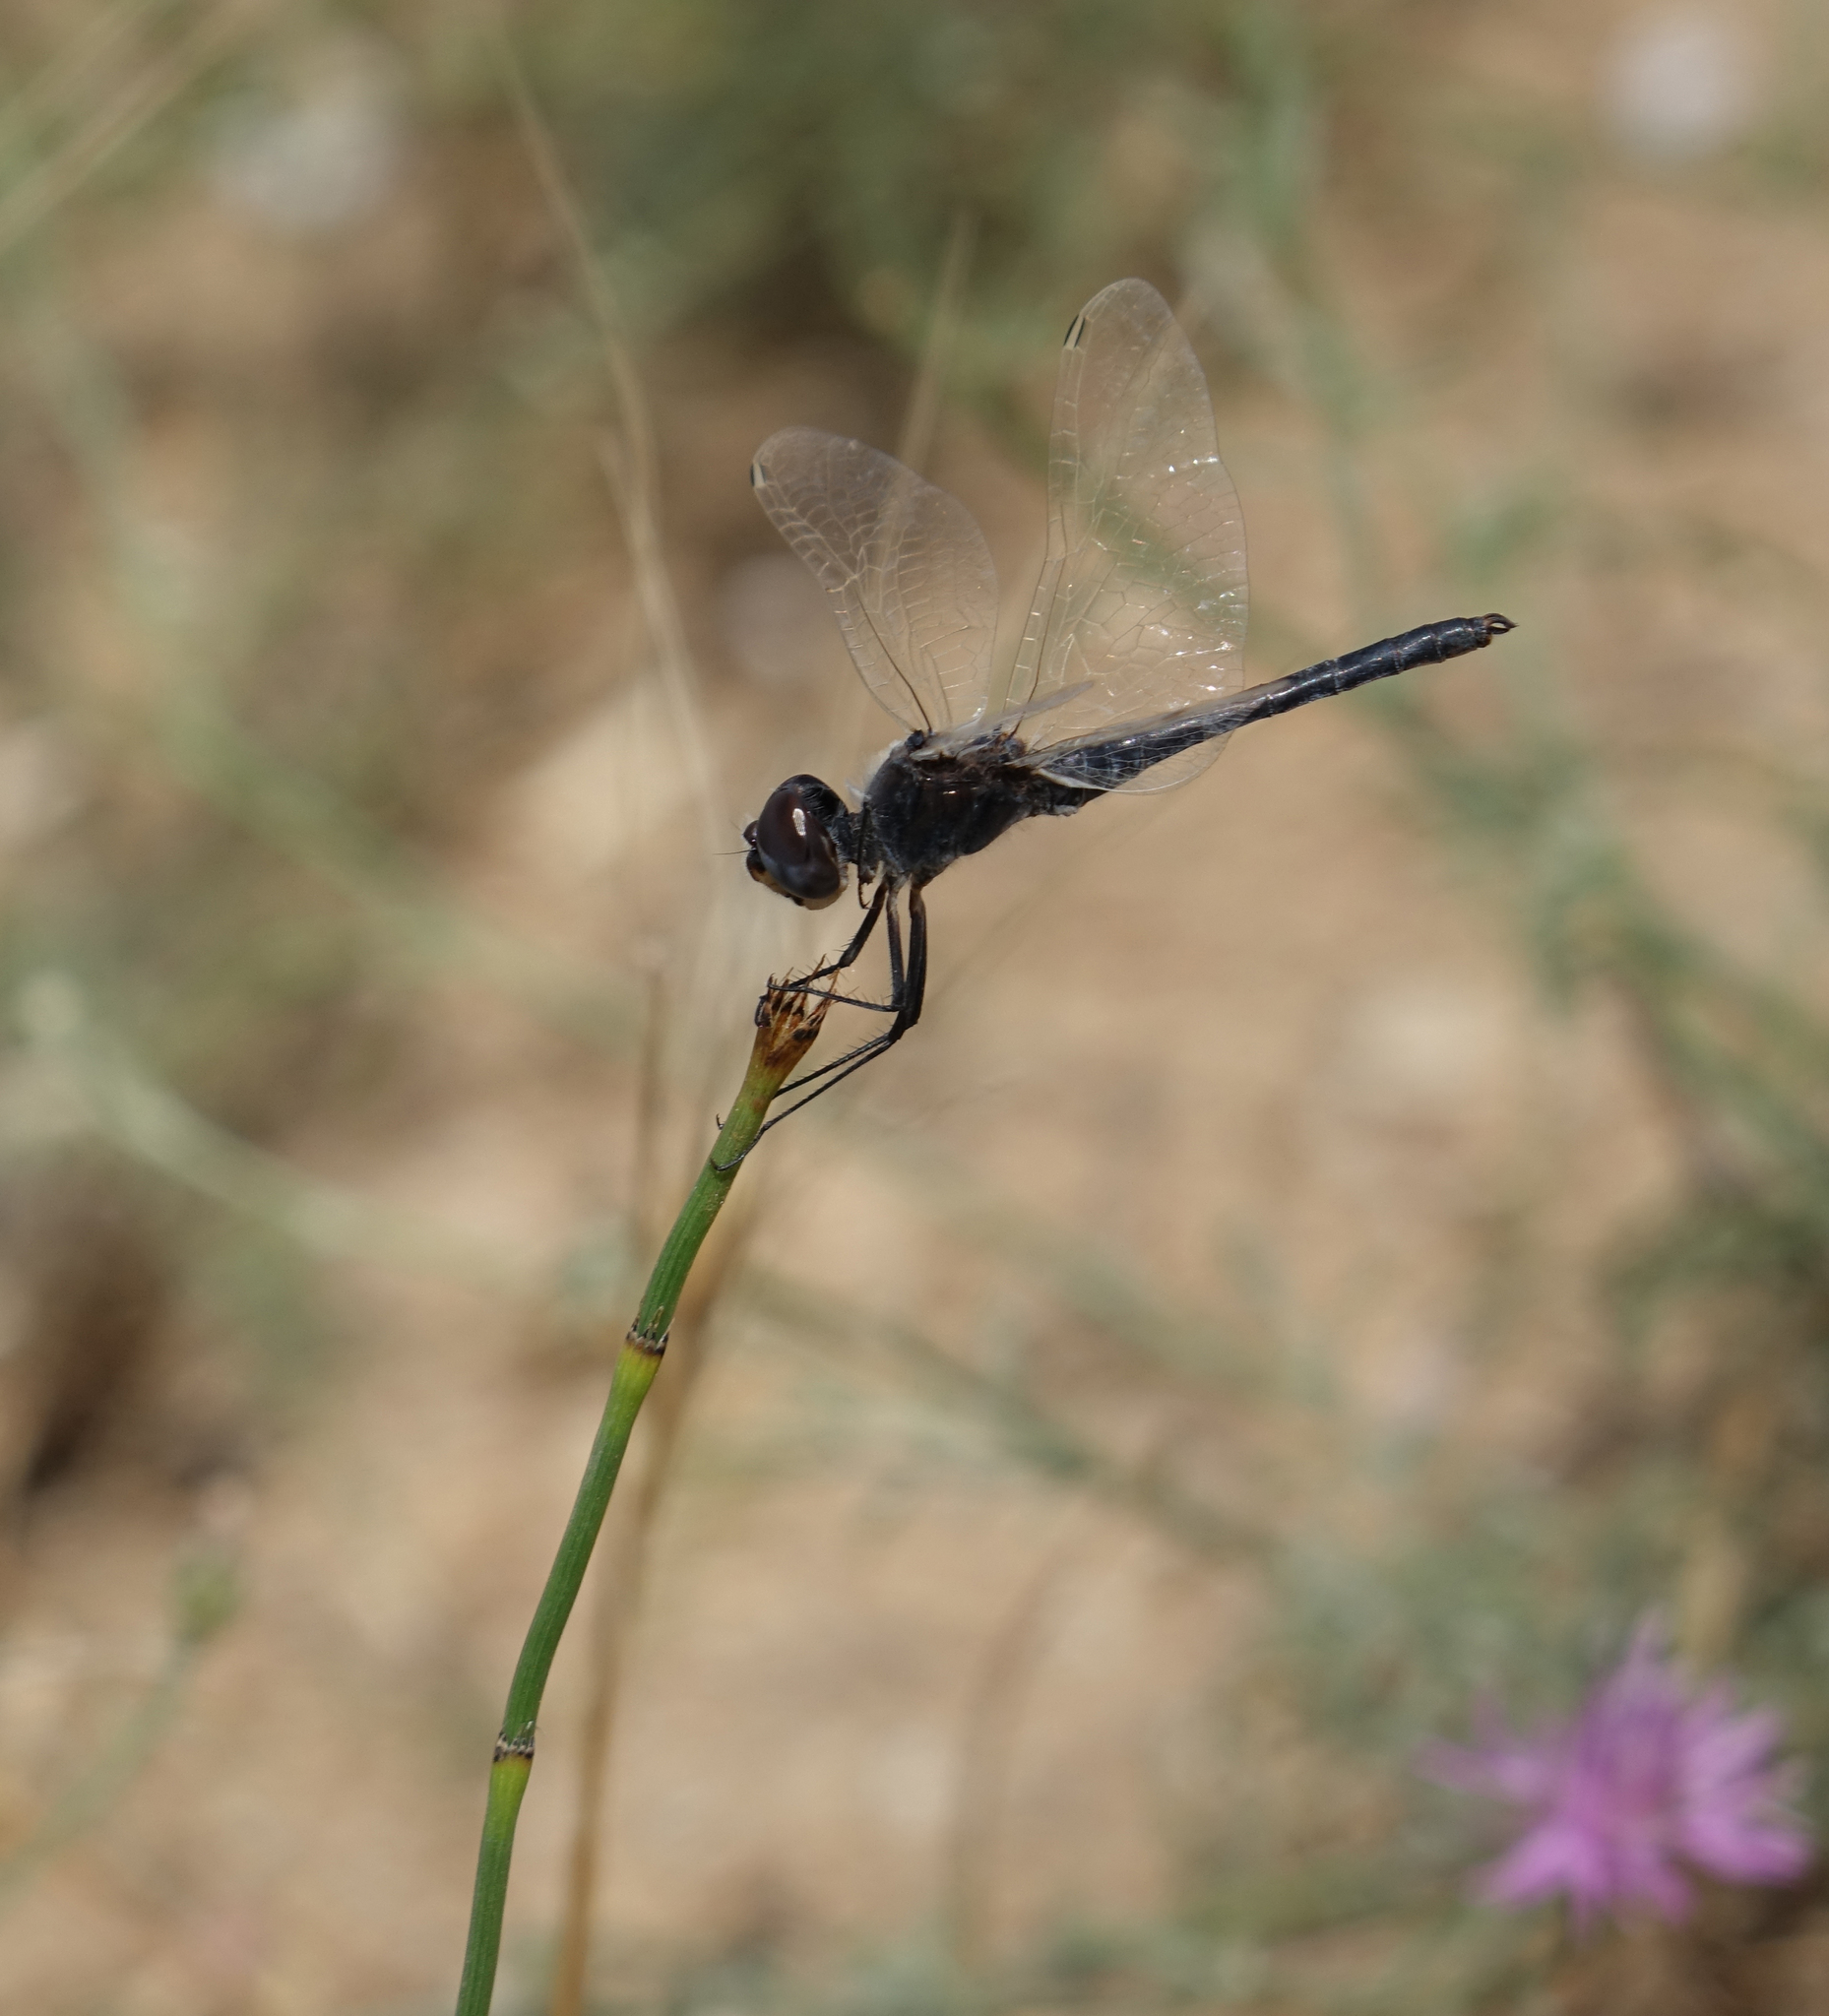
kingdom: Animalia
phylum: Arthropoda
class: Insecta
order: Odonata
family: Libellulidae
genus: Selysiothemis
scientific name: Selysiothemis nigra
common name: Black pennant
